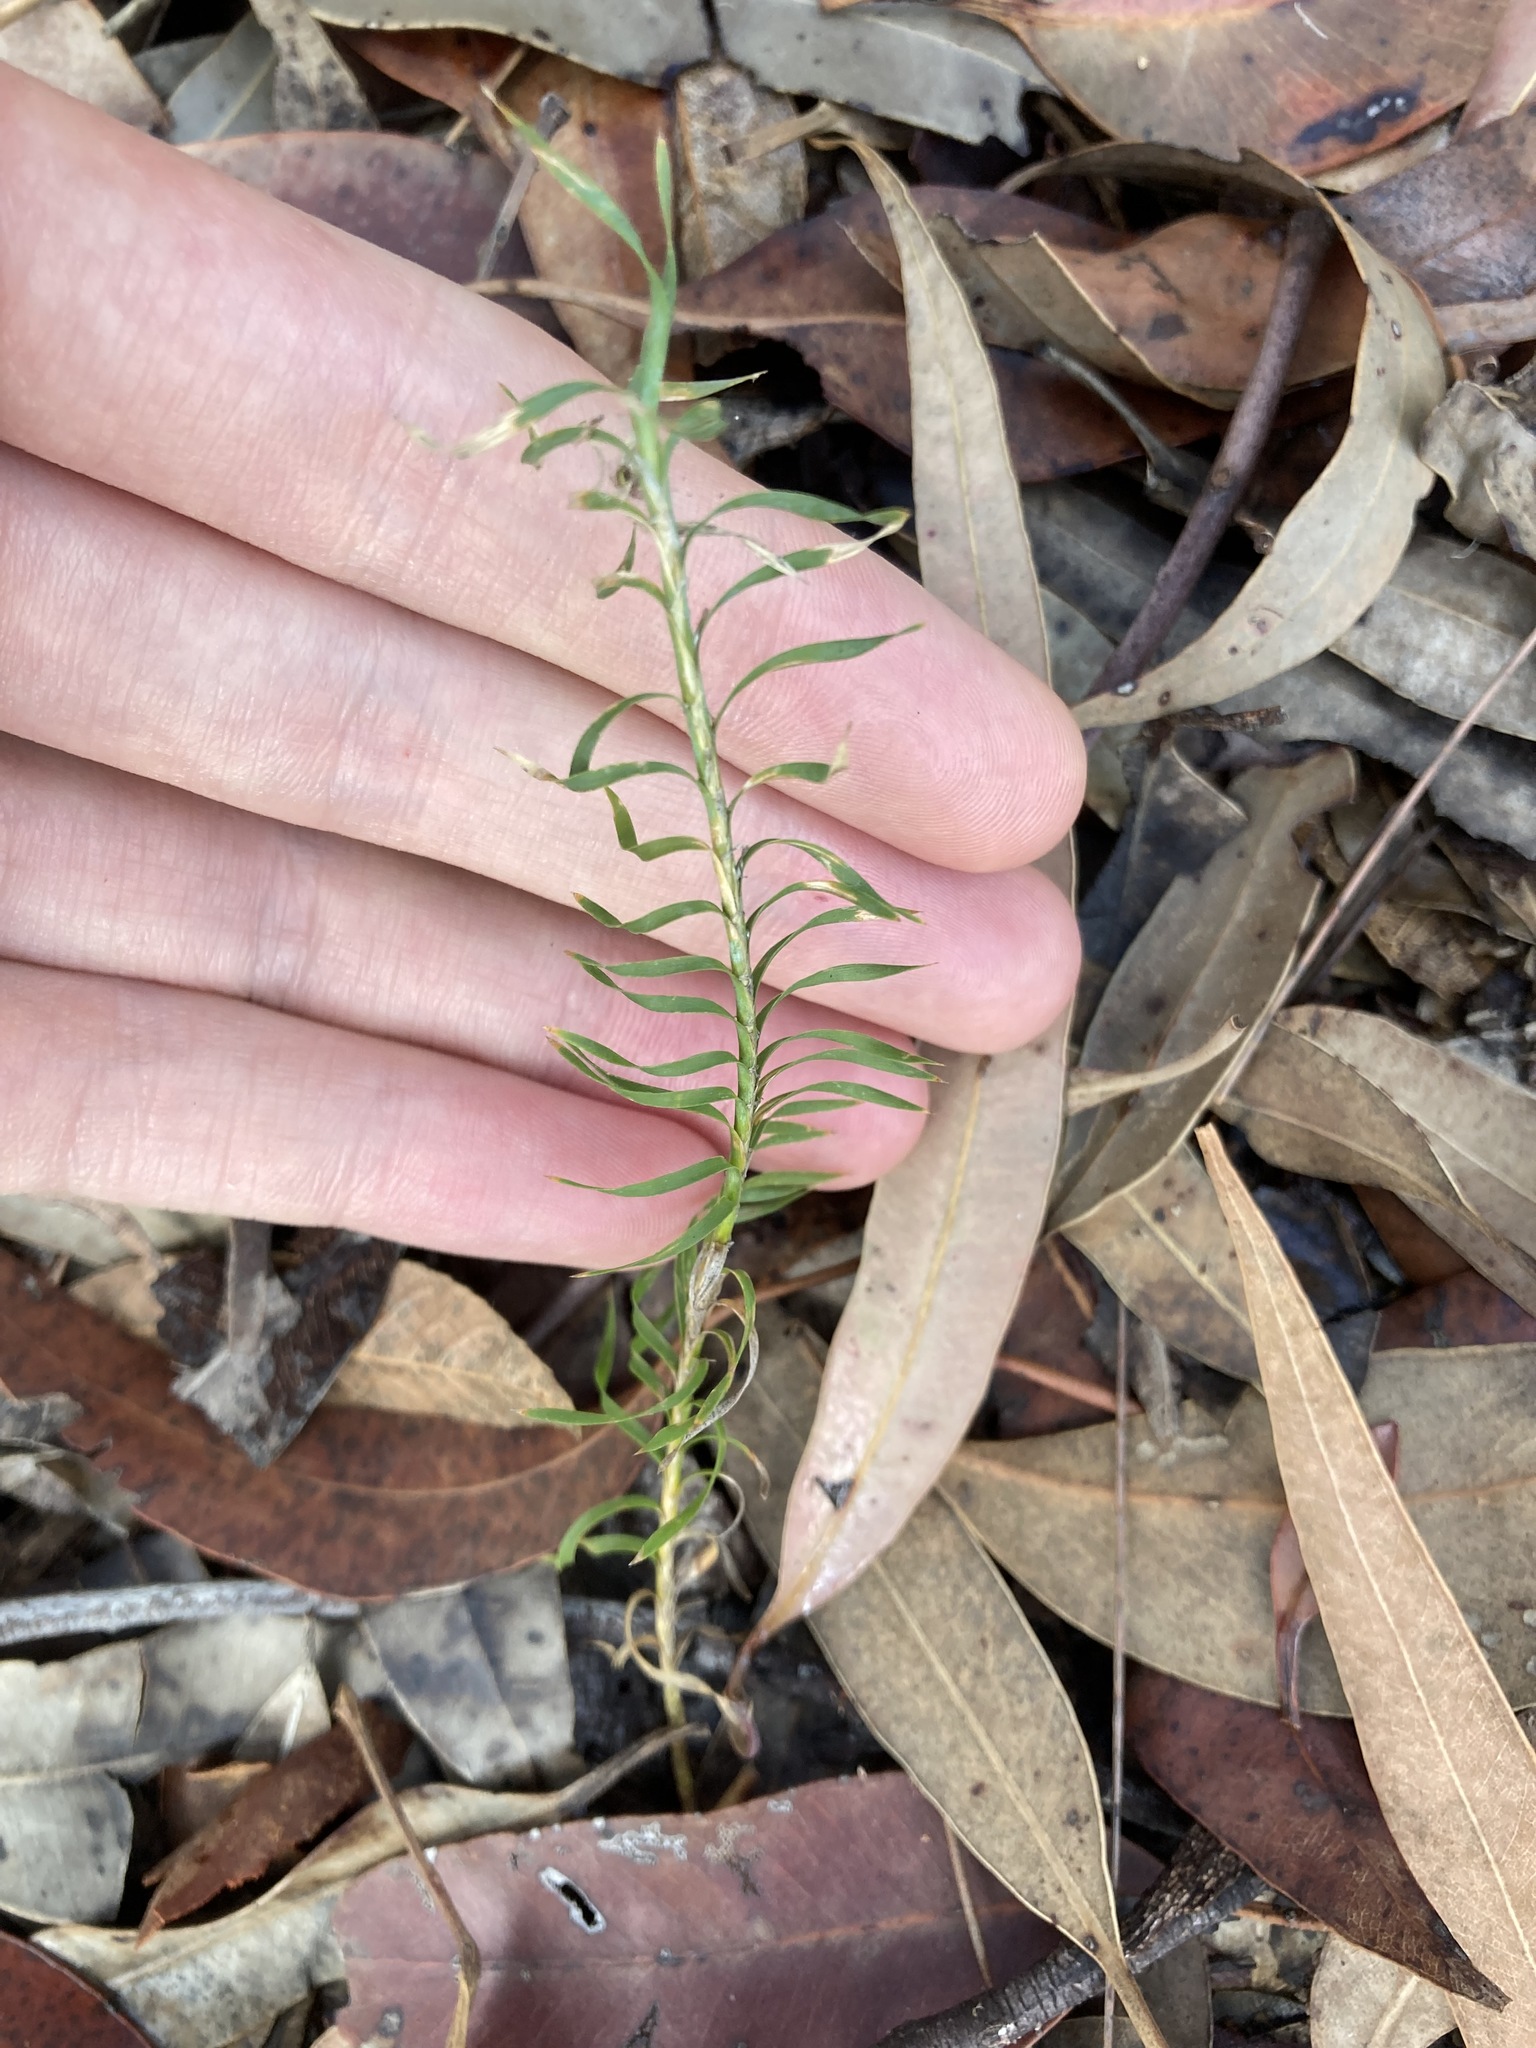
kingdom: Plantae
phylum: Tracheophyta
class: Liliopsida
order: Asparagales
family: Asparagaceae
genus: Lomandra
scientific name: Lomandra obliqua
